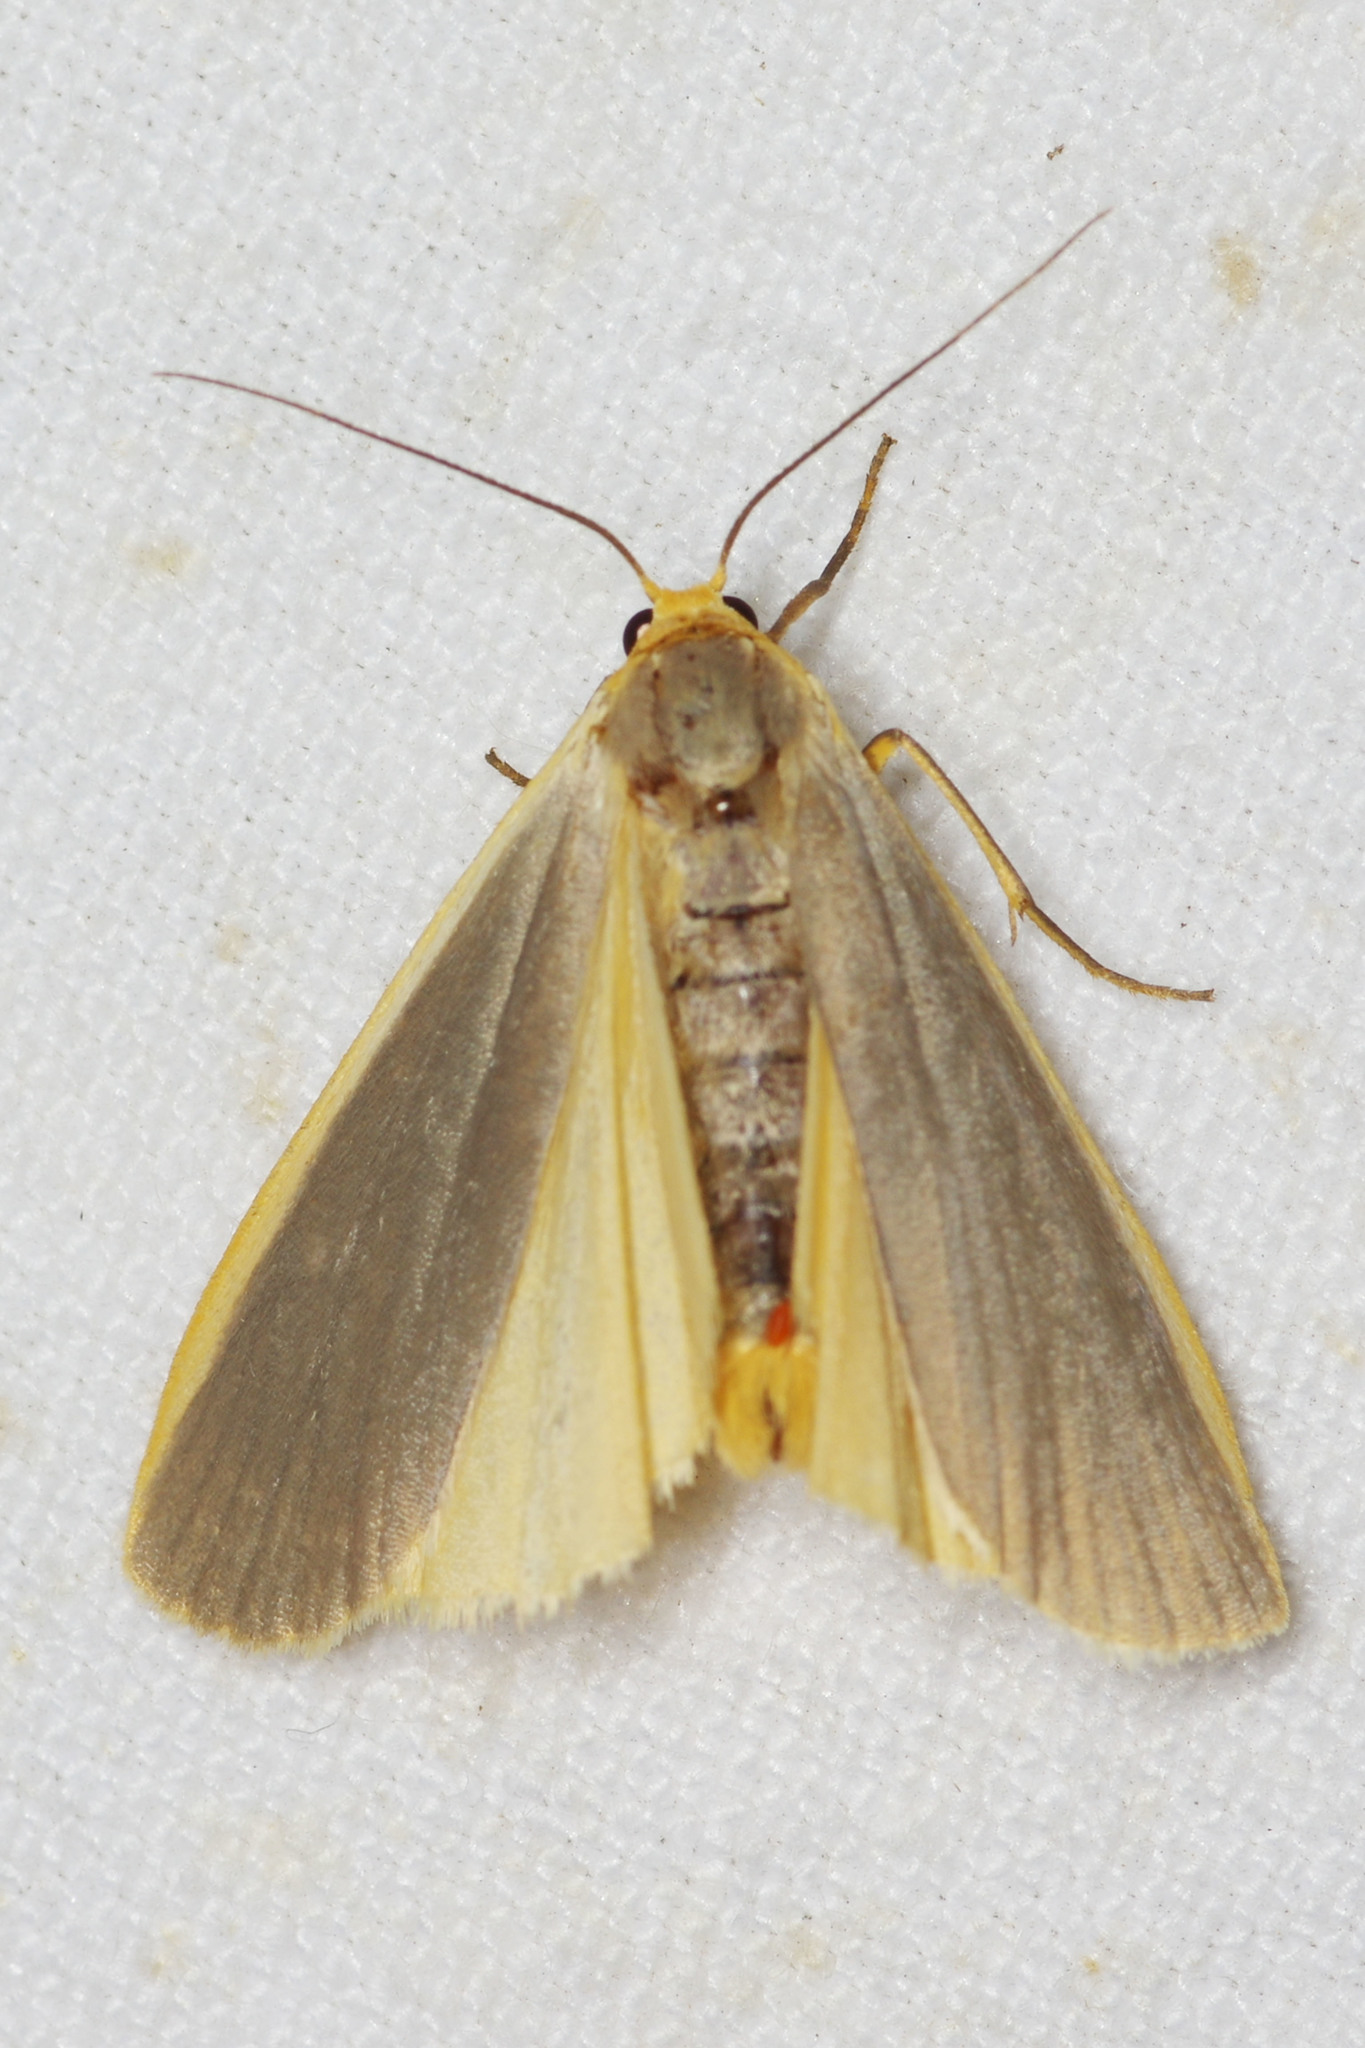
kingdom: Animalia
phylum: Arthropoda
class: Insecta
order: Lepidoptera
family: Erebidae
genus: Nyea
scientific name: Nyea lurideola
